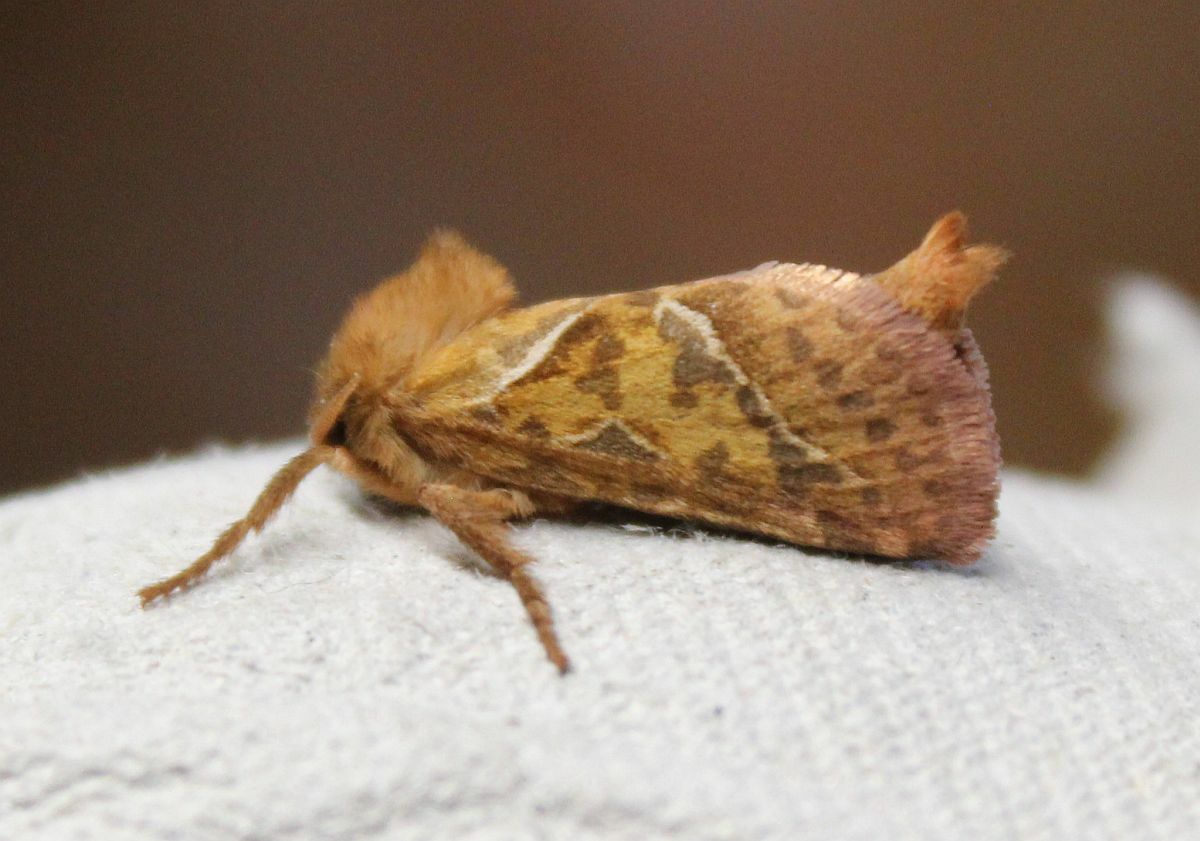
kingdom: Animalia
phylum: Arthropoda
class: Insecta
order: Lepidoptera
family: Hepialidae
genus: Triodia
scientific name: Triodia sylvina
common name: Orange swift
